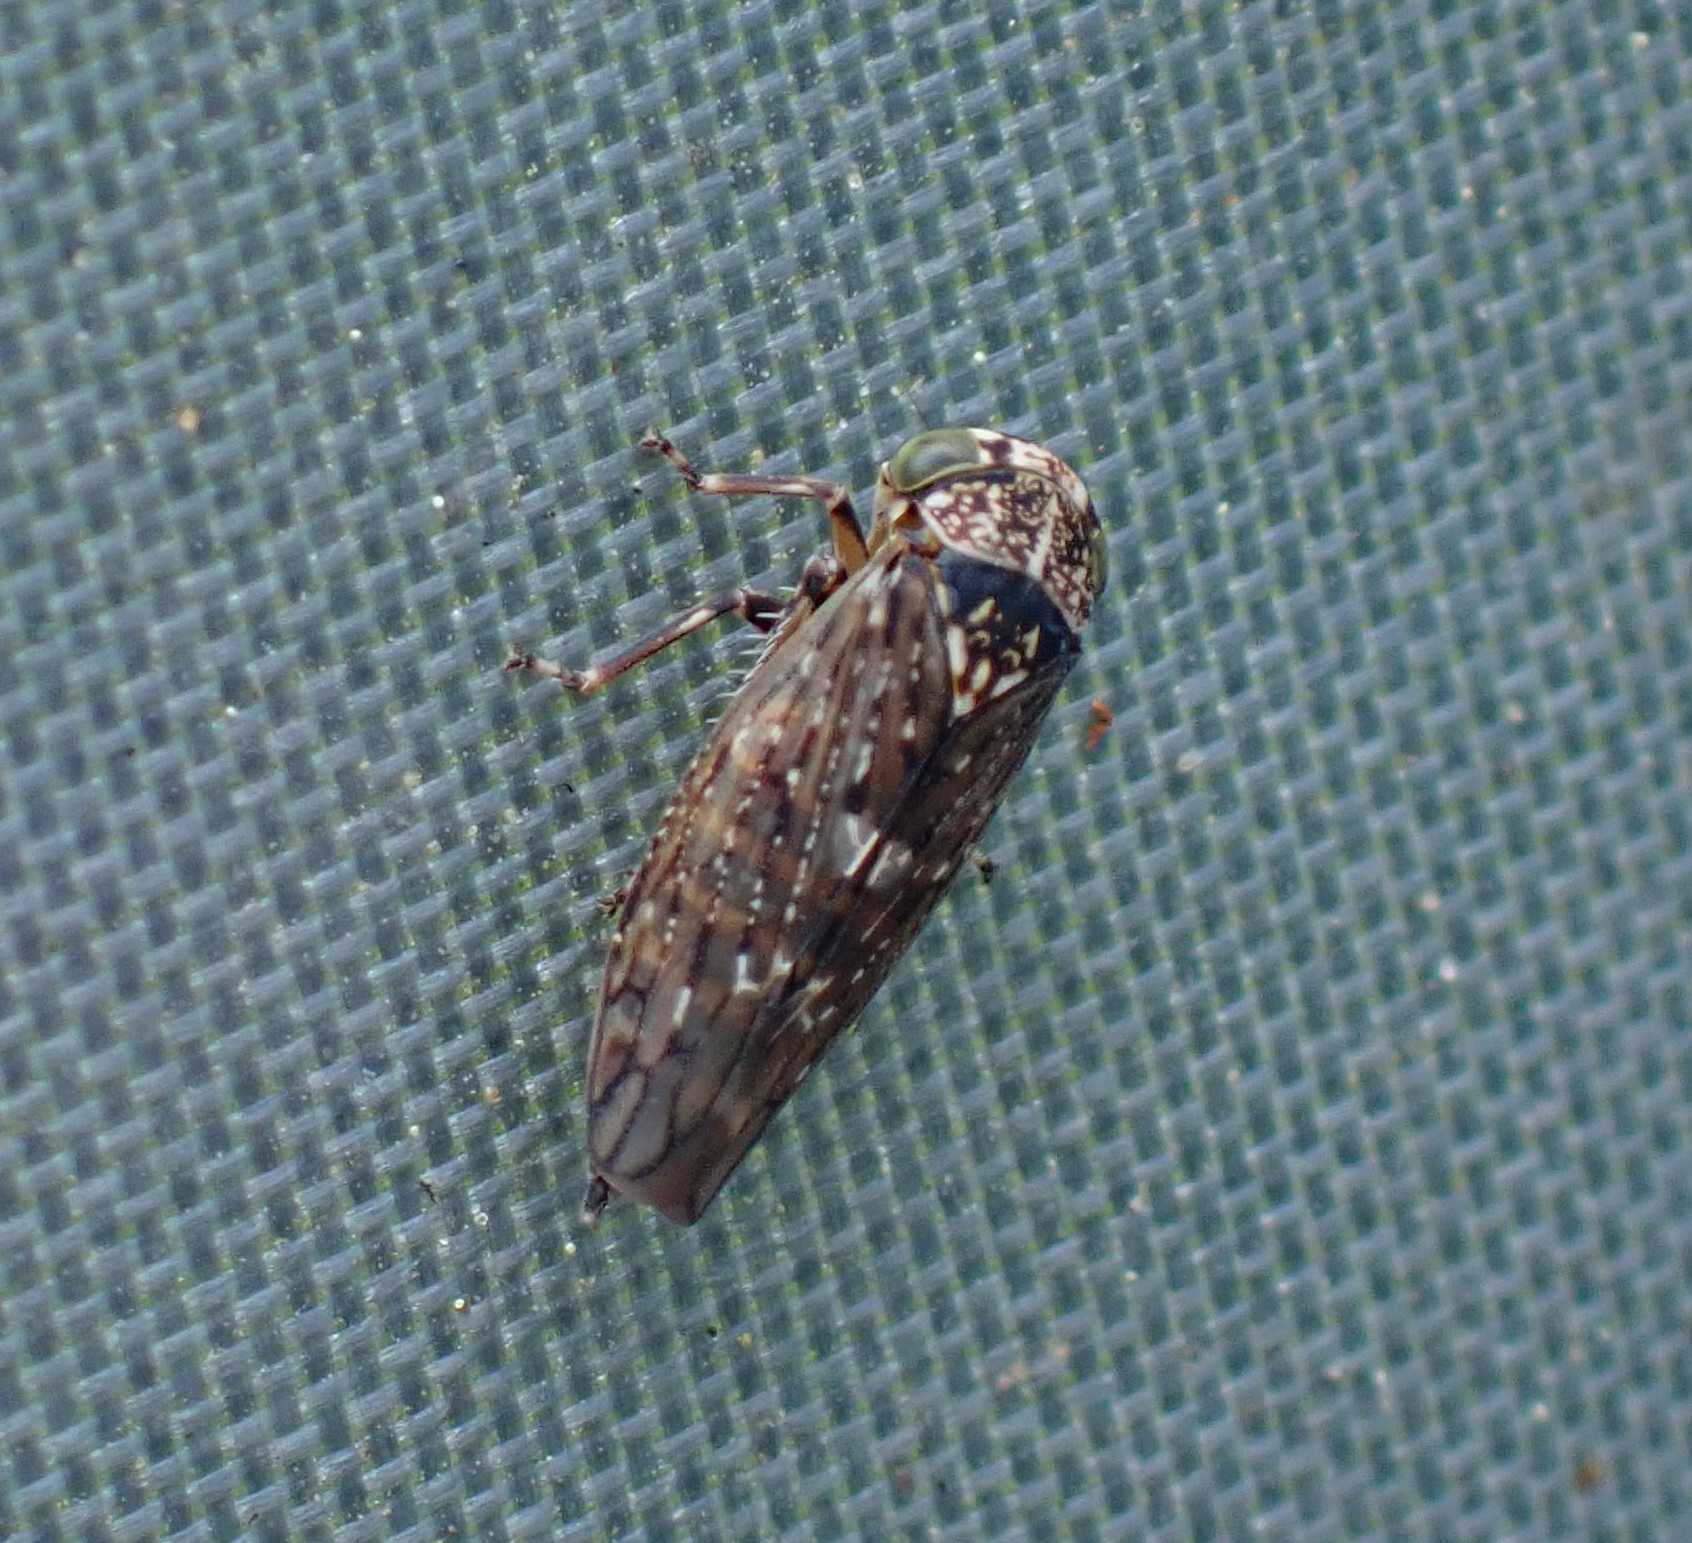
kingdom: Animalia
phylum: Arthropoda
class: Insecta
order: Hemiptera
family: Cicadellidae
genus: Acericerus
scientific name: Acericerus heydenii
